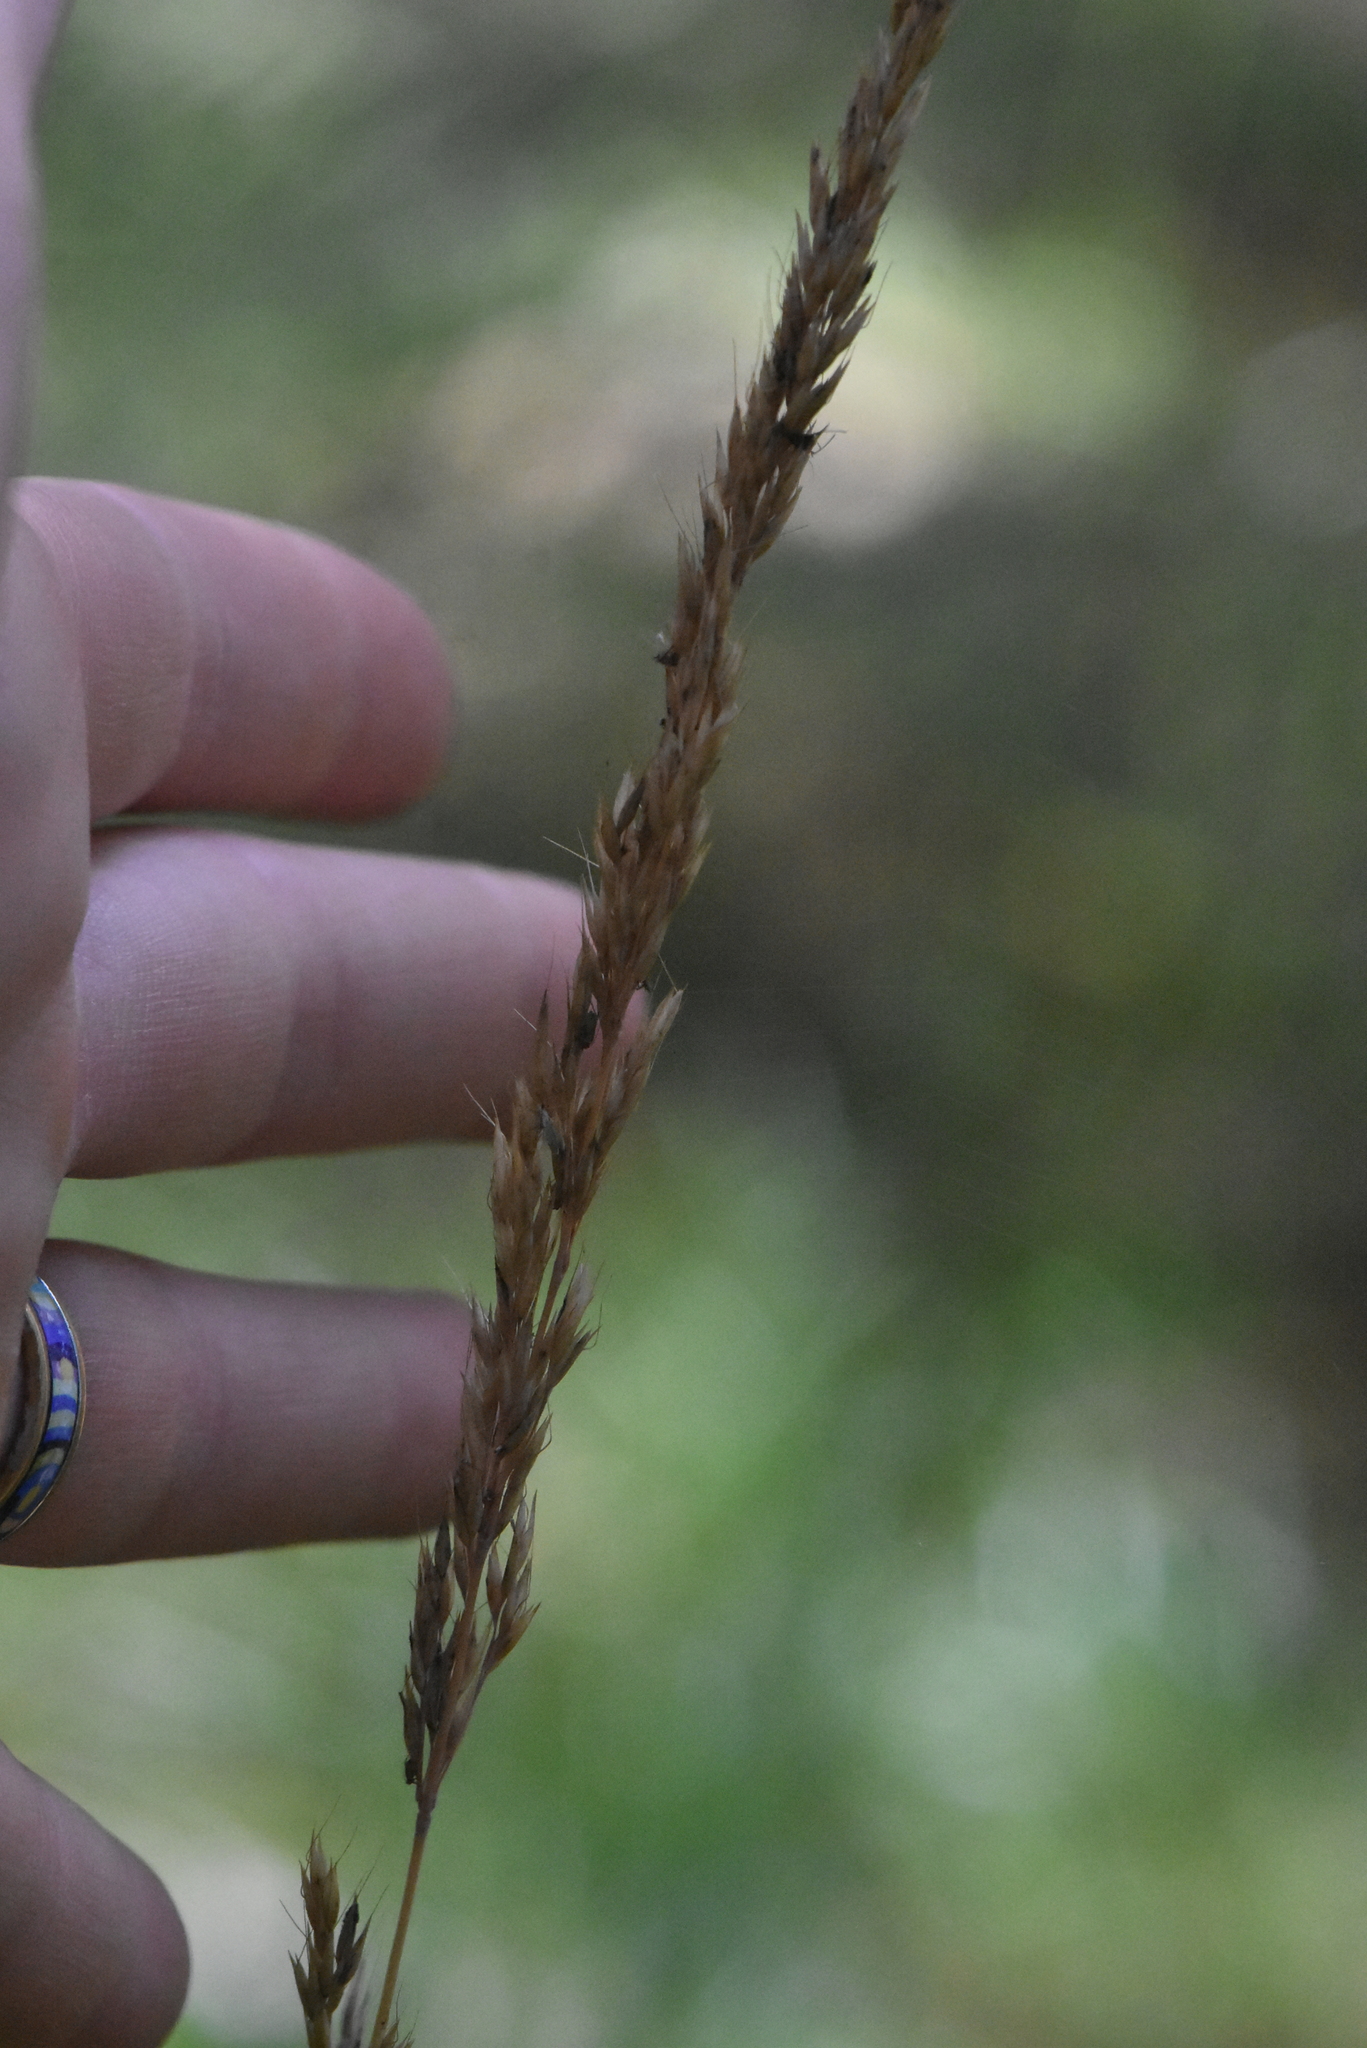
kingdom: Plantae
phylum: Tracheophyta
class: Liliopsida
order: Poales
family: Poaceae
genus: Calamagrostis
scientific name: Calamagrostis arundinacea
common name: Metskastik
